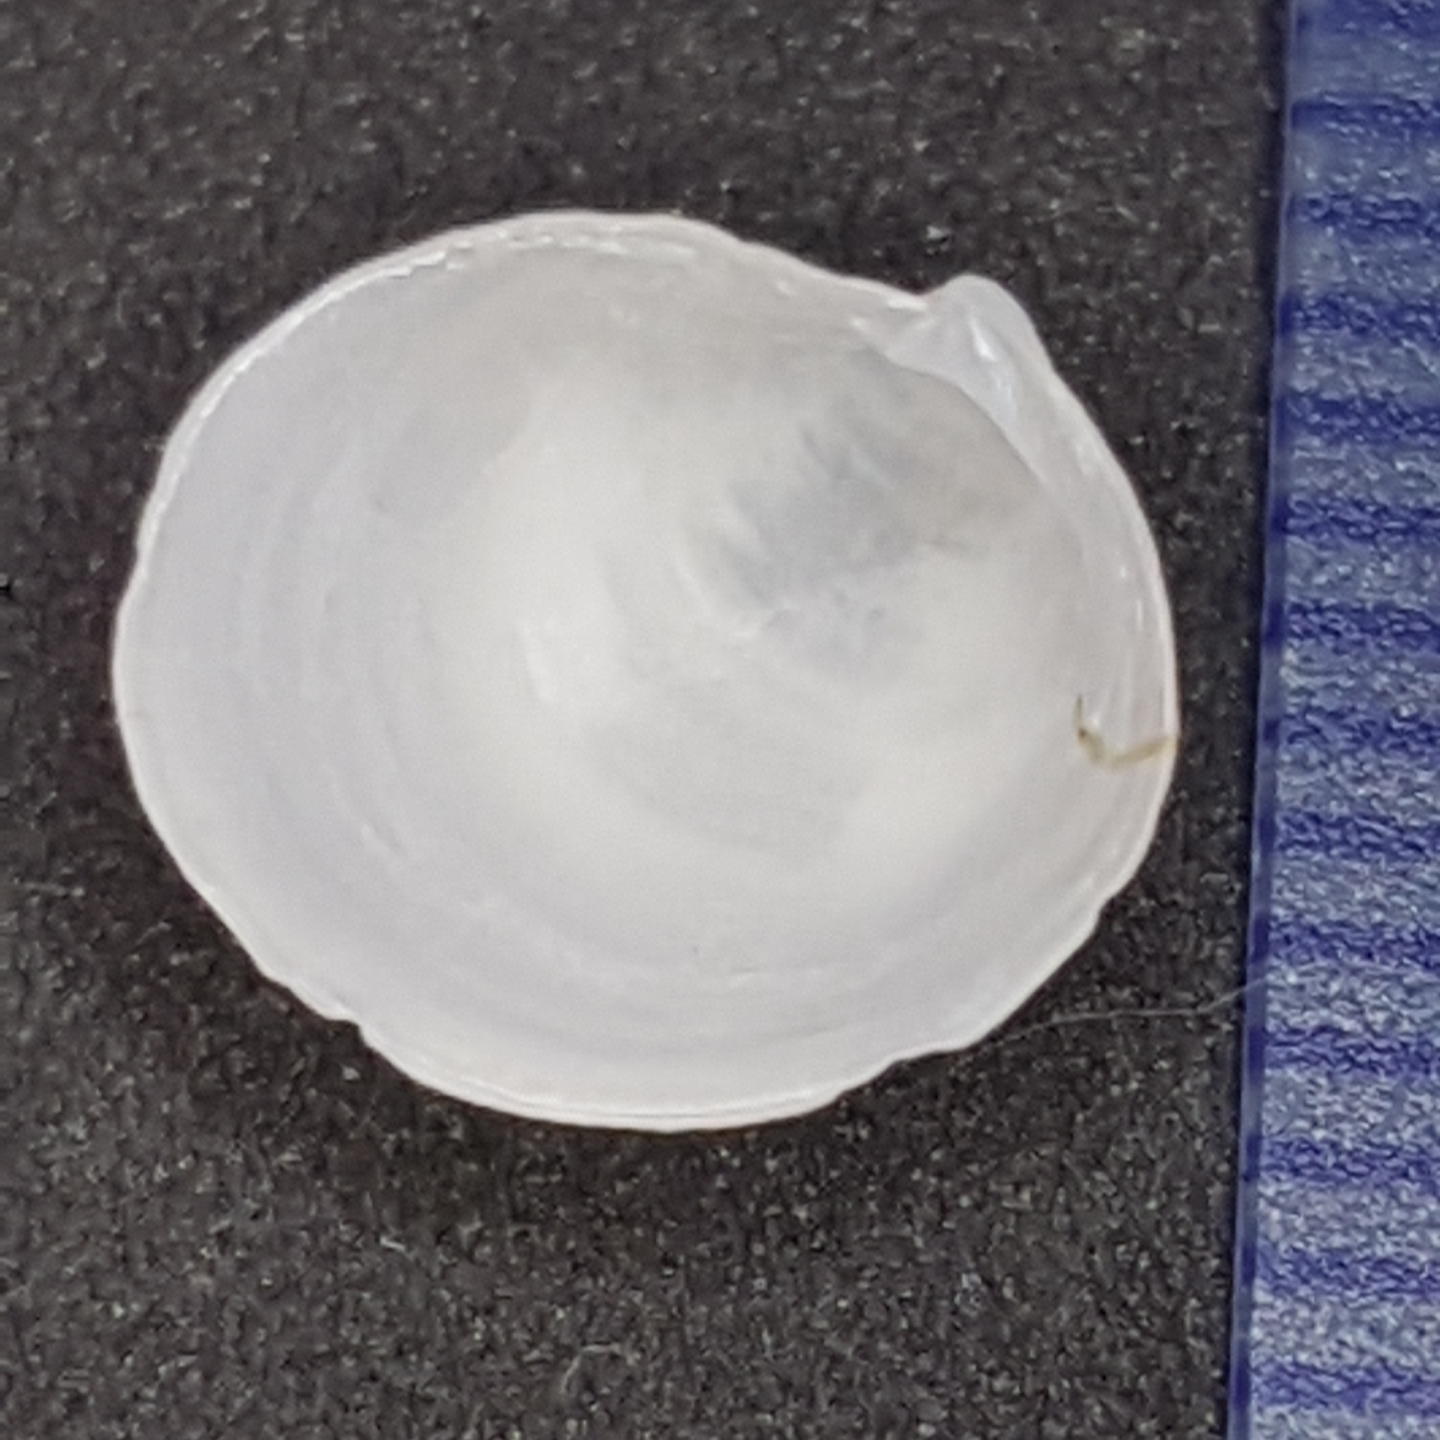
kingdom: Animalia
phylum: Mollusca
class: Bivalvia
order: Lucinida
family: Lucinidae
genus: Lucinella
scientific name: Lucinella divaricata
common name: Divaricate lucine
